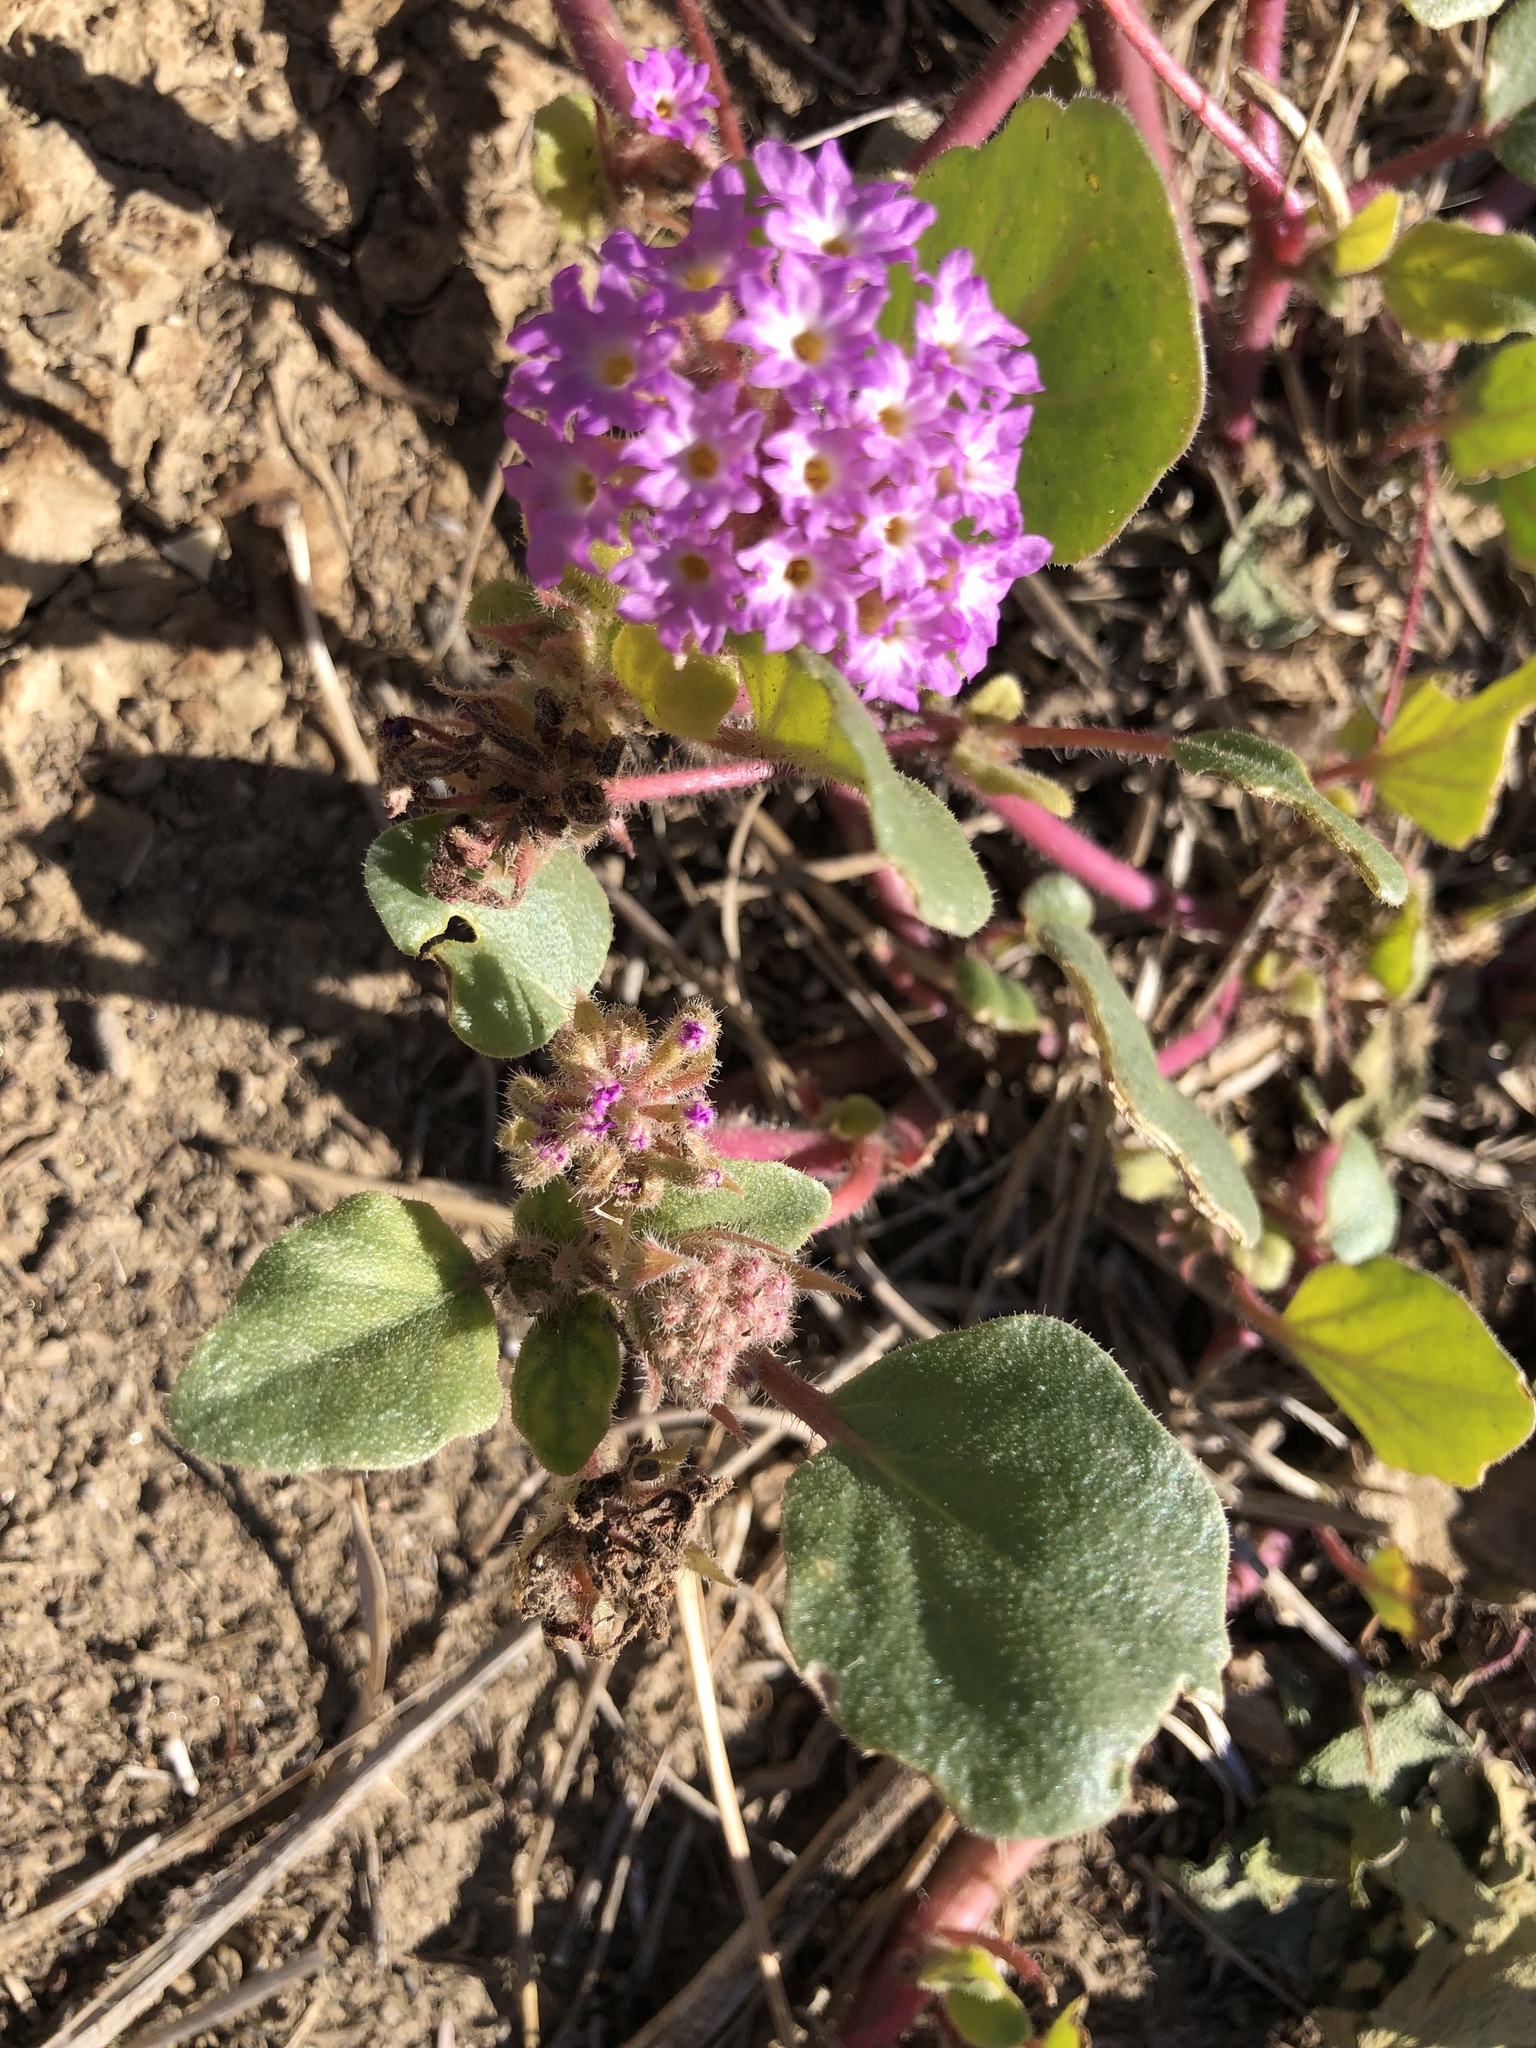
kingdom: Plantae
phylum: Tracheophyta
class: Magnoliopsida
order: Caryophyllales
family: Nyctaginaceae
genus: Abronia
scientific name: Abronia villosa
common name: Desert sand-verbena
